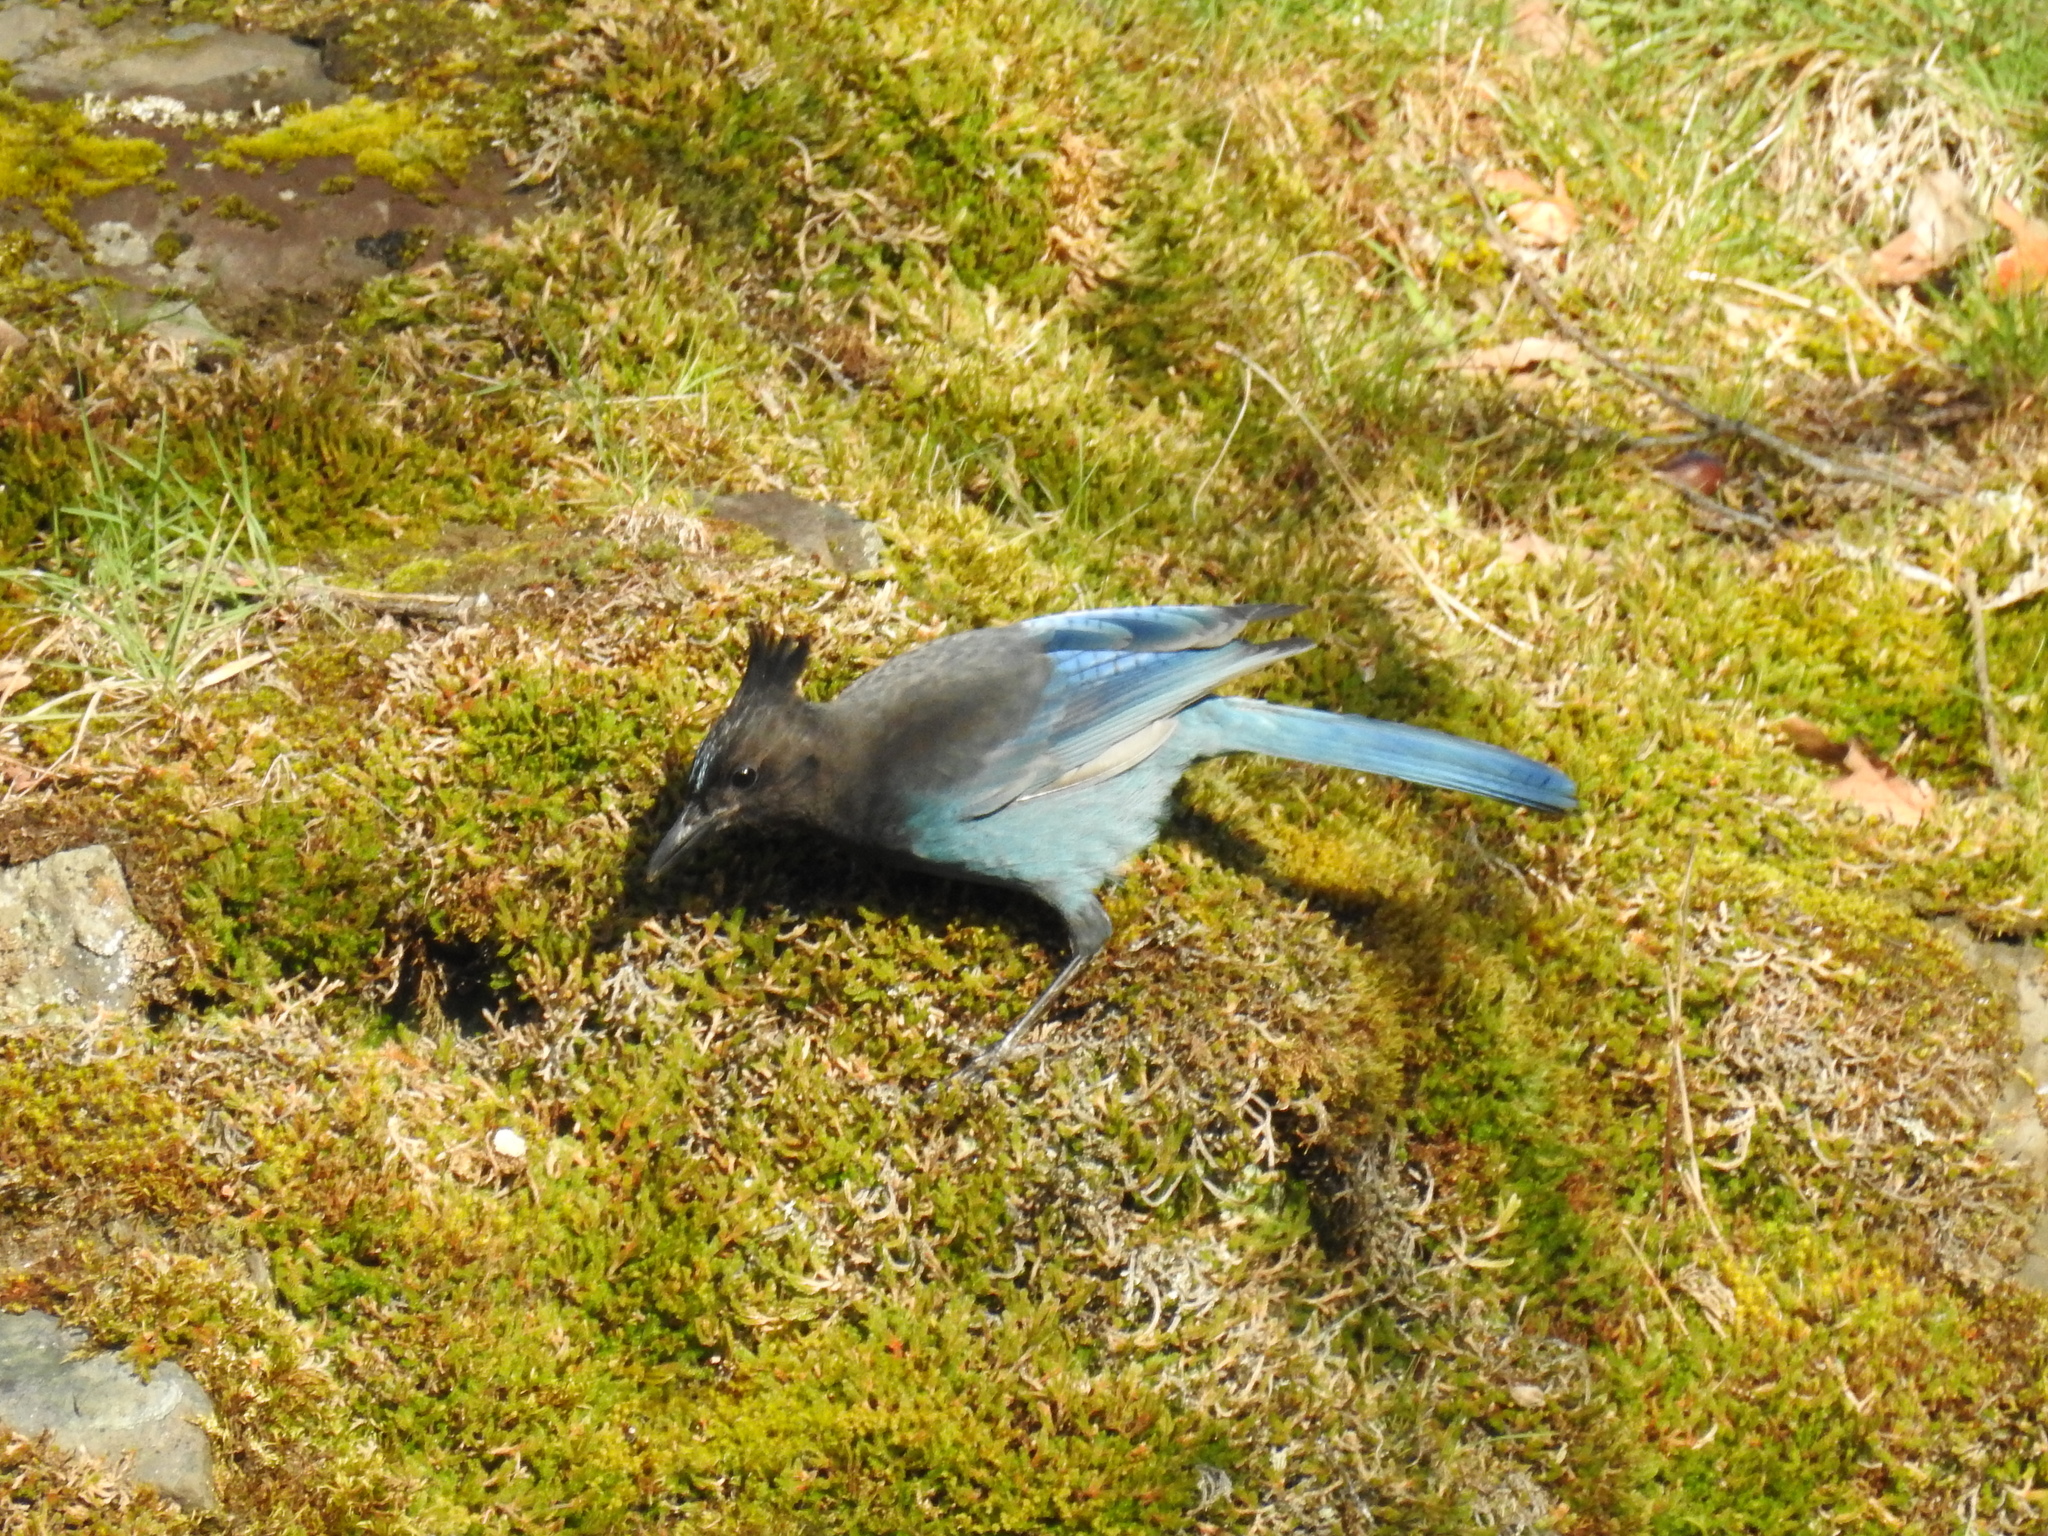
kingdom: Animalia
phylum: Chordata
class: Aves
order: Passeriformes
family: Corvidae
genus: Cyanocitta
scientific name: Cyanocitta stelleri
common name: Steller's jay
